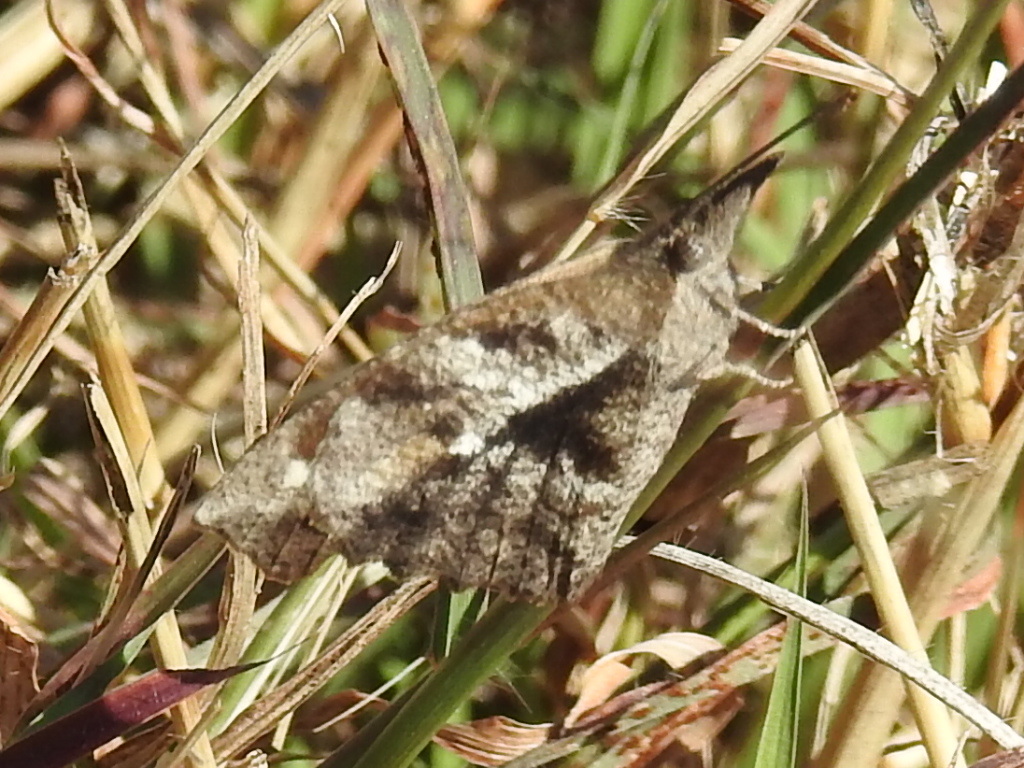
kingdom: Animalia
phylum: Arthropoda
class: Insecta
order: Lepidoptera
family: Nymphalidae
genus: Libytheana
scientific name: Libytheana carinenta
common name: American snout
